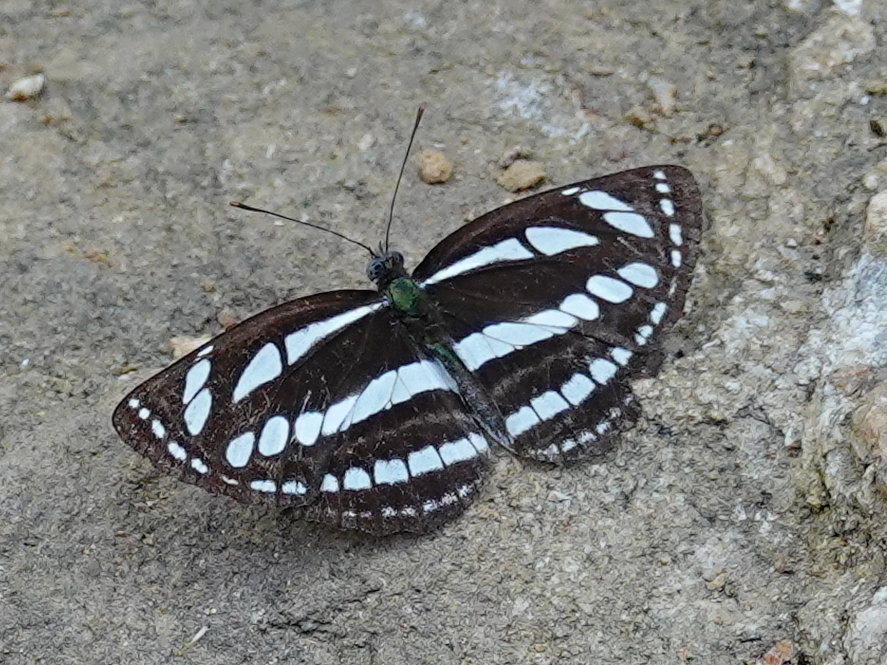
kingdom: Animalia
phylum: Arthropoda
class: Insecta
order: Lepidoptera
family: Nymphalidae
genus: Neptis
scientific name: Neptis sappho
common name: Common glider
